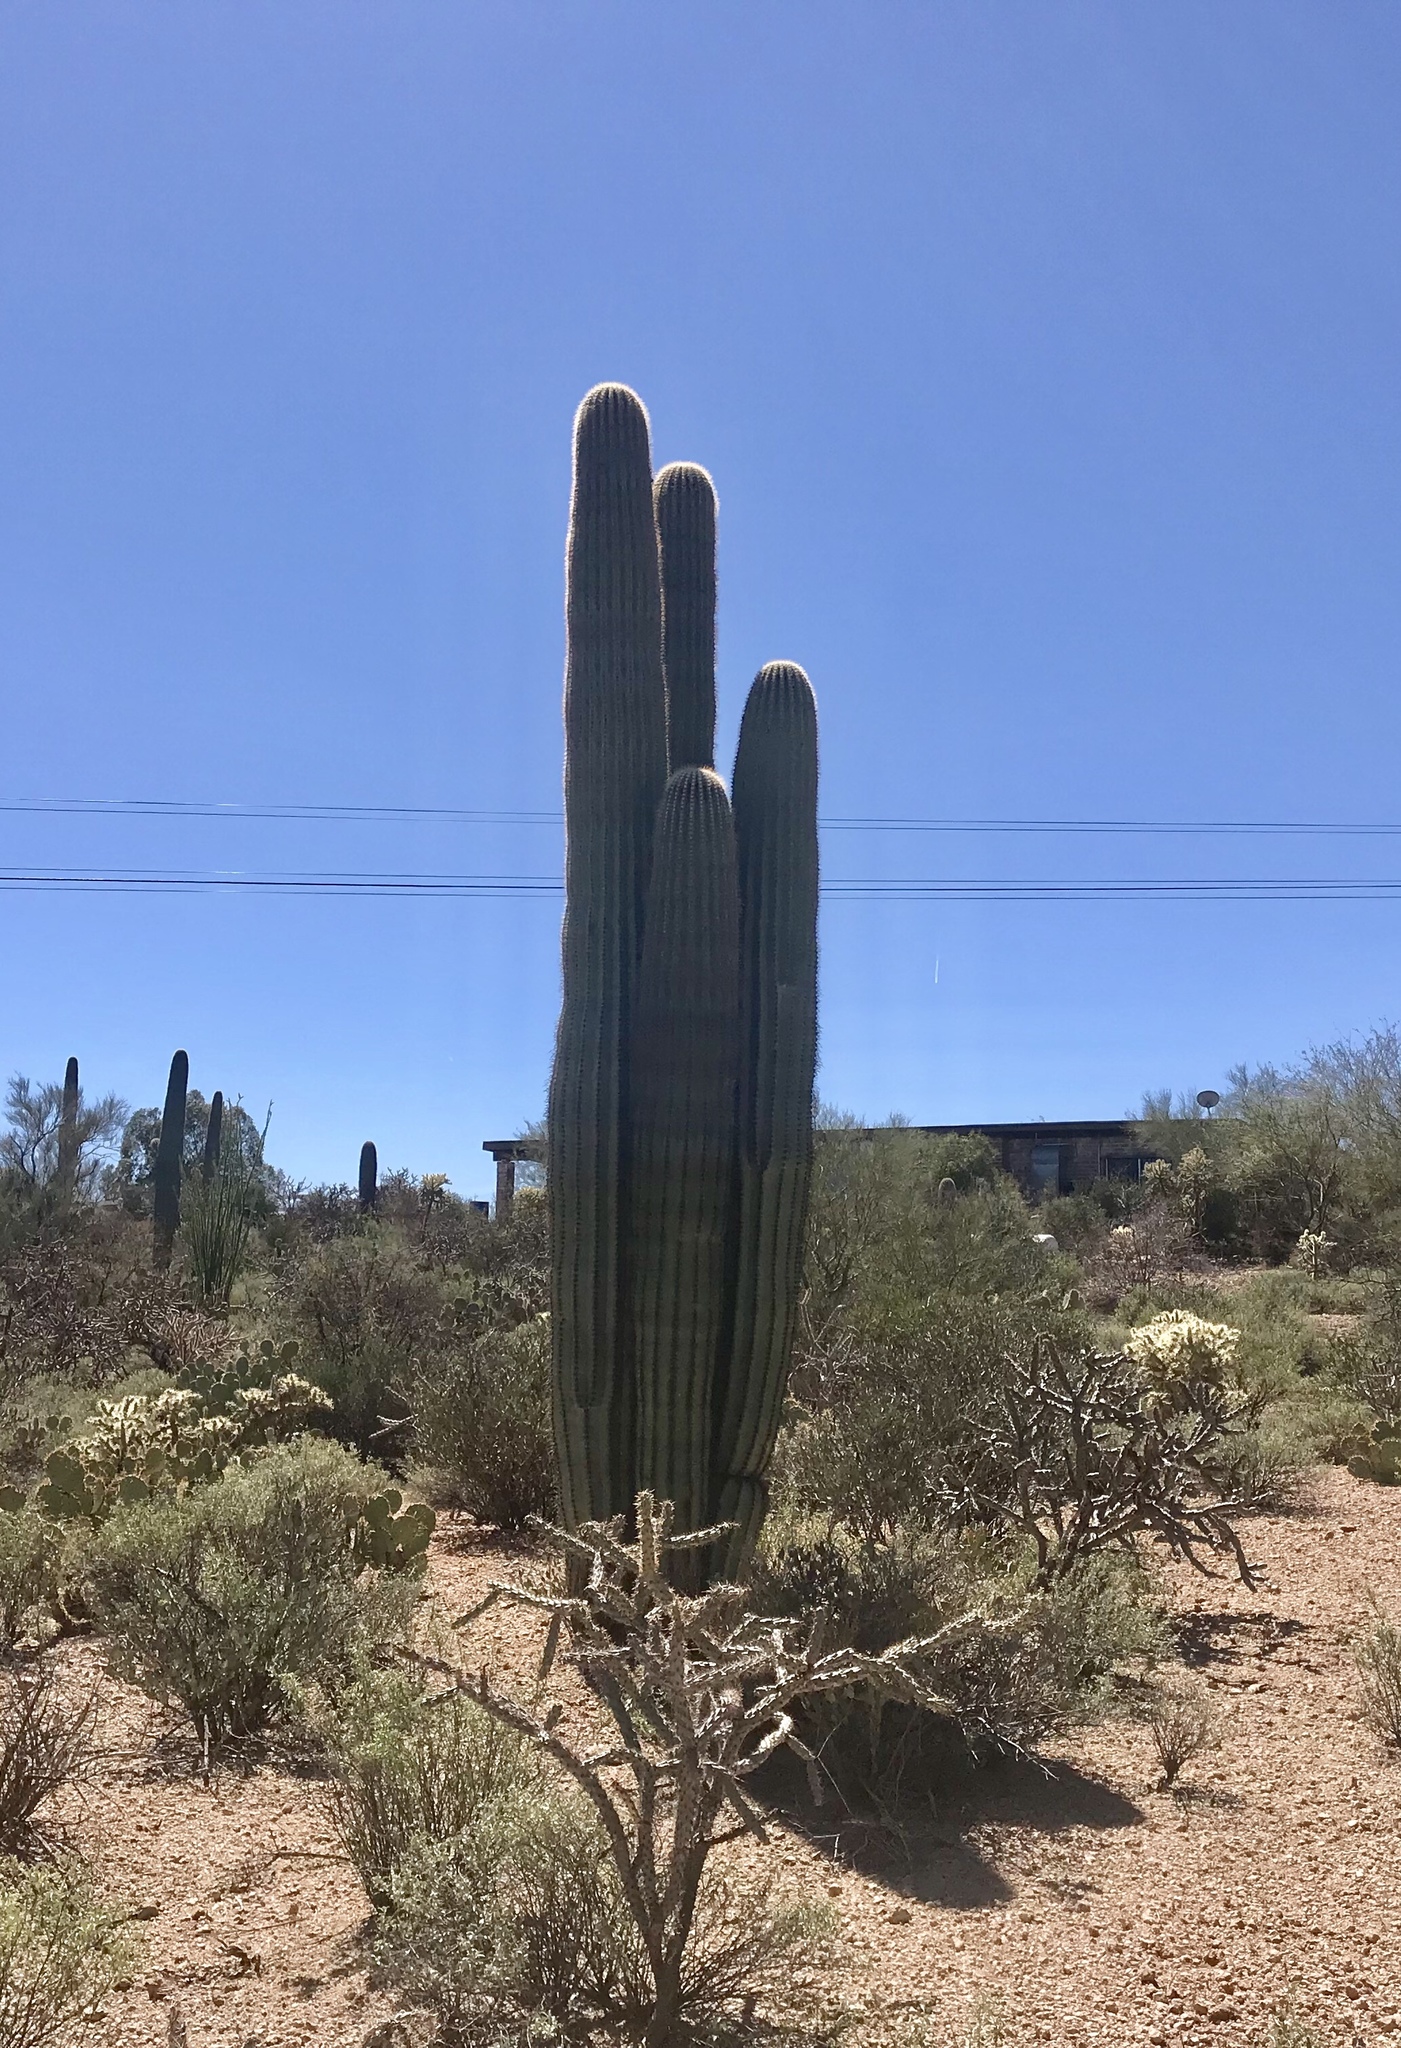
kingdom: Plantae
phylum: Tracheophyta
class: Magnoliopsida
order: Caryophyllales
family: Cactaceae
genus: Carnegiea
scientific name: Carnegiea gigantea
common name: Saguaro
